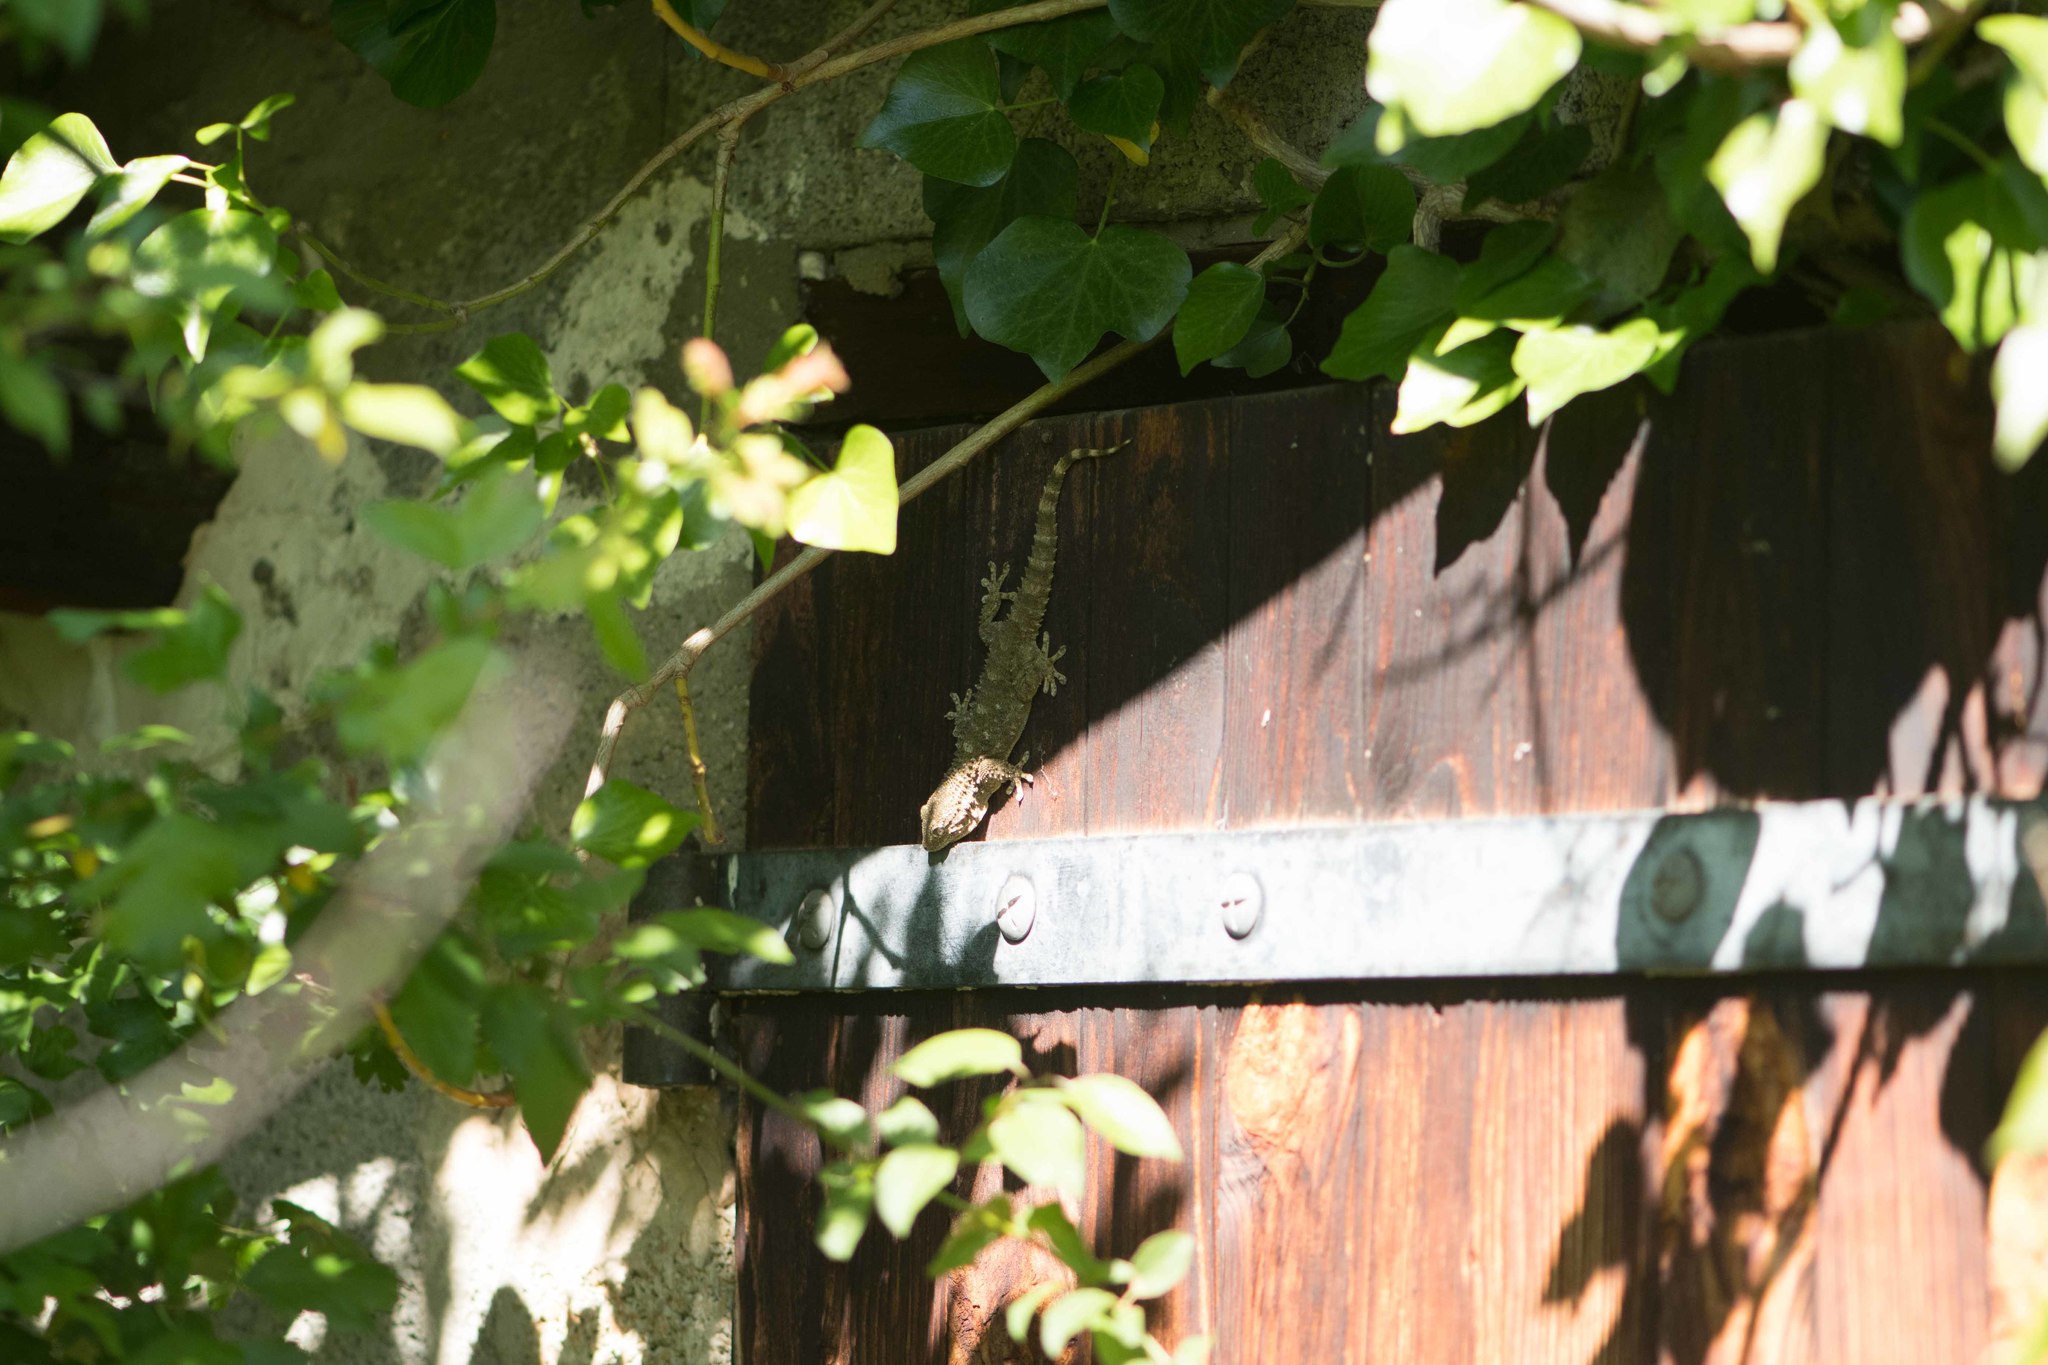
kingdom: Animalia
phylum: Chordata
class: Squamata
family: Phyllodactylidae
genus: Tarentola
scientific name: Tarentola mauritanica
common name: Moorish gecko
